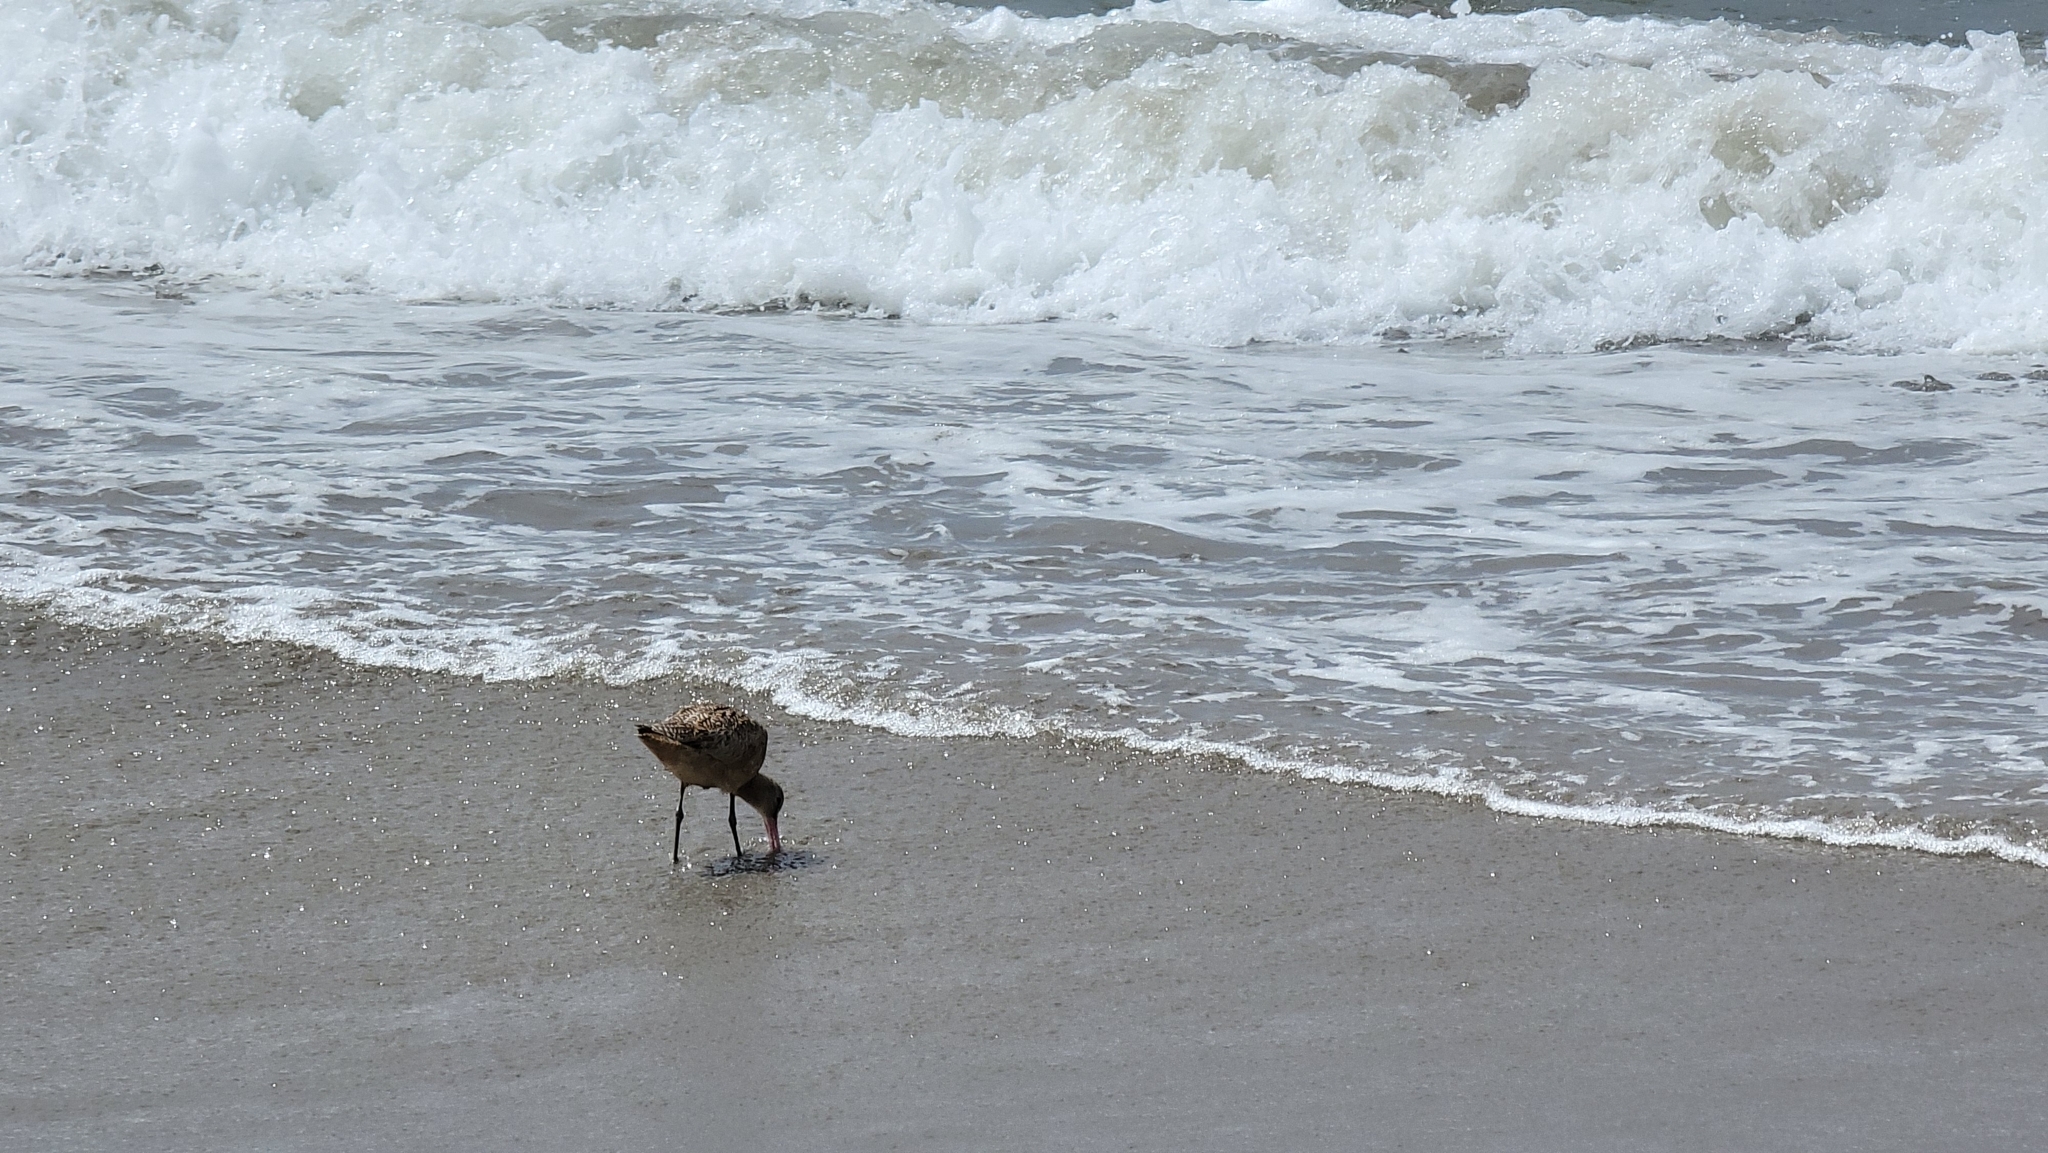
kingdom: Animalia
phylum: Chordata
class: Aves
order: Charadriiformes
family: Scolopacidae
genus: Limosa
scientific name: Limosa fedoa
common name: Marbled godwit
